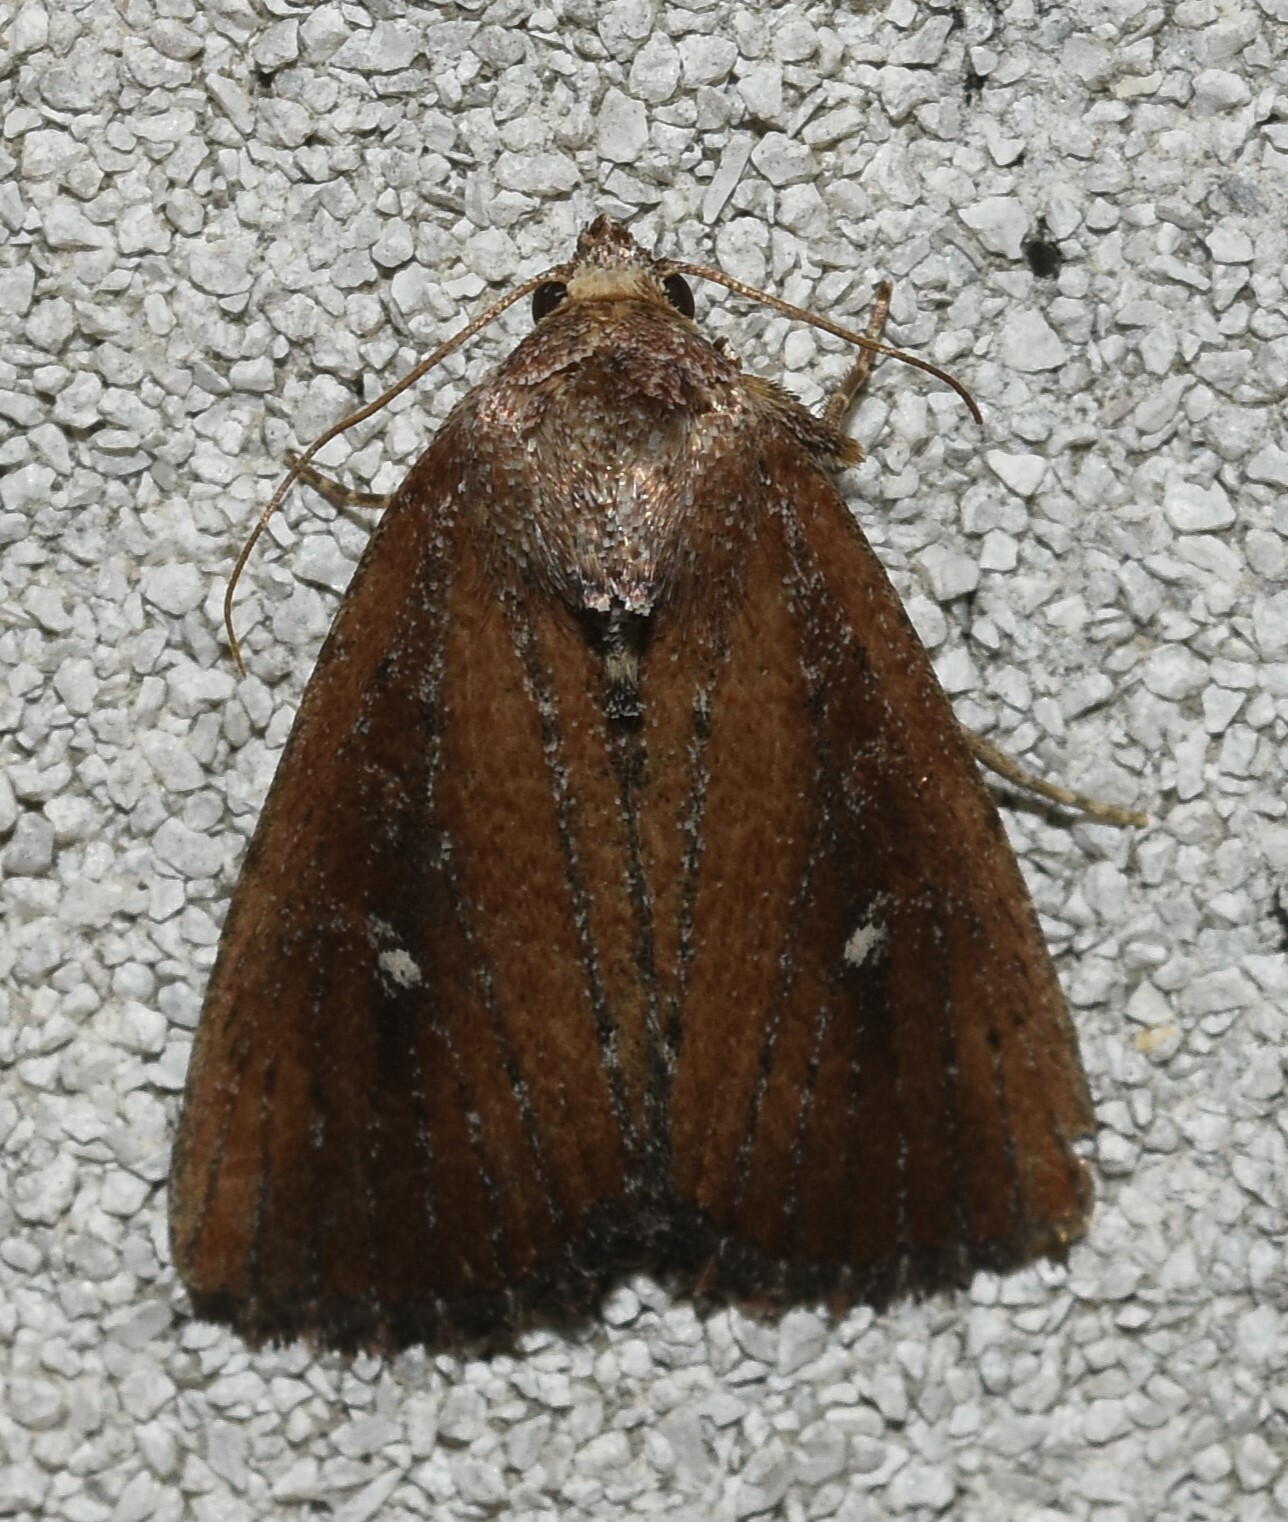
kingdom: Animalia
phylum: Arthropoda
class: Insecta
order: Lepidoptera
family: Noctuidae
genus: Condica
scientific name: Condica videns
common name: White-dotted groundling
